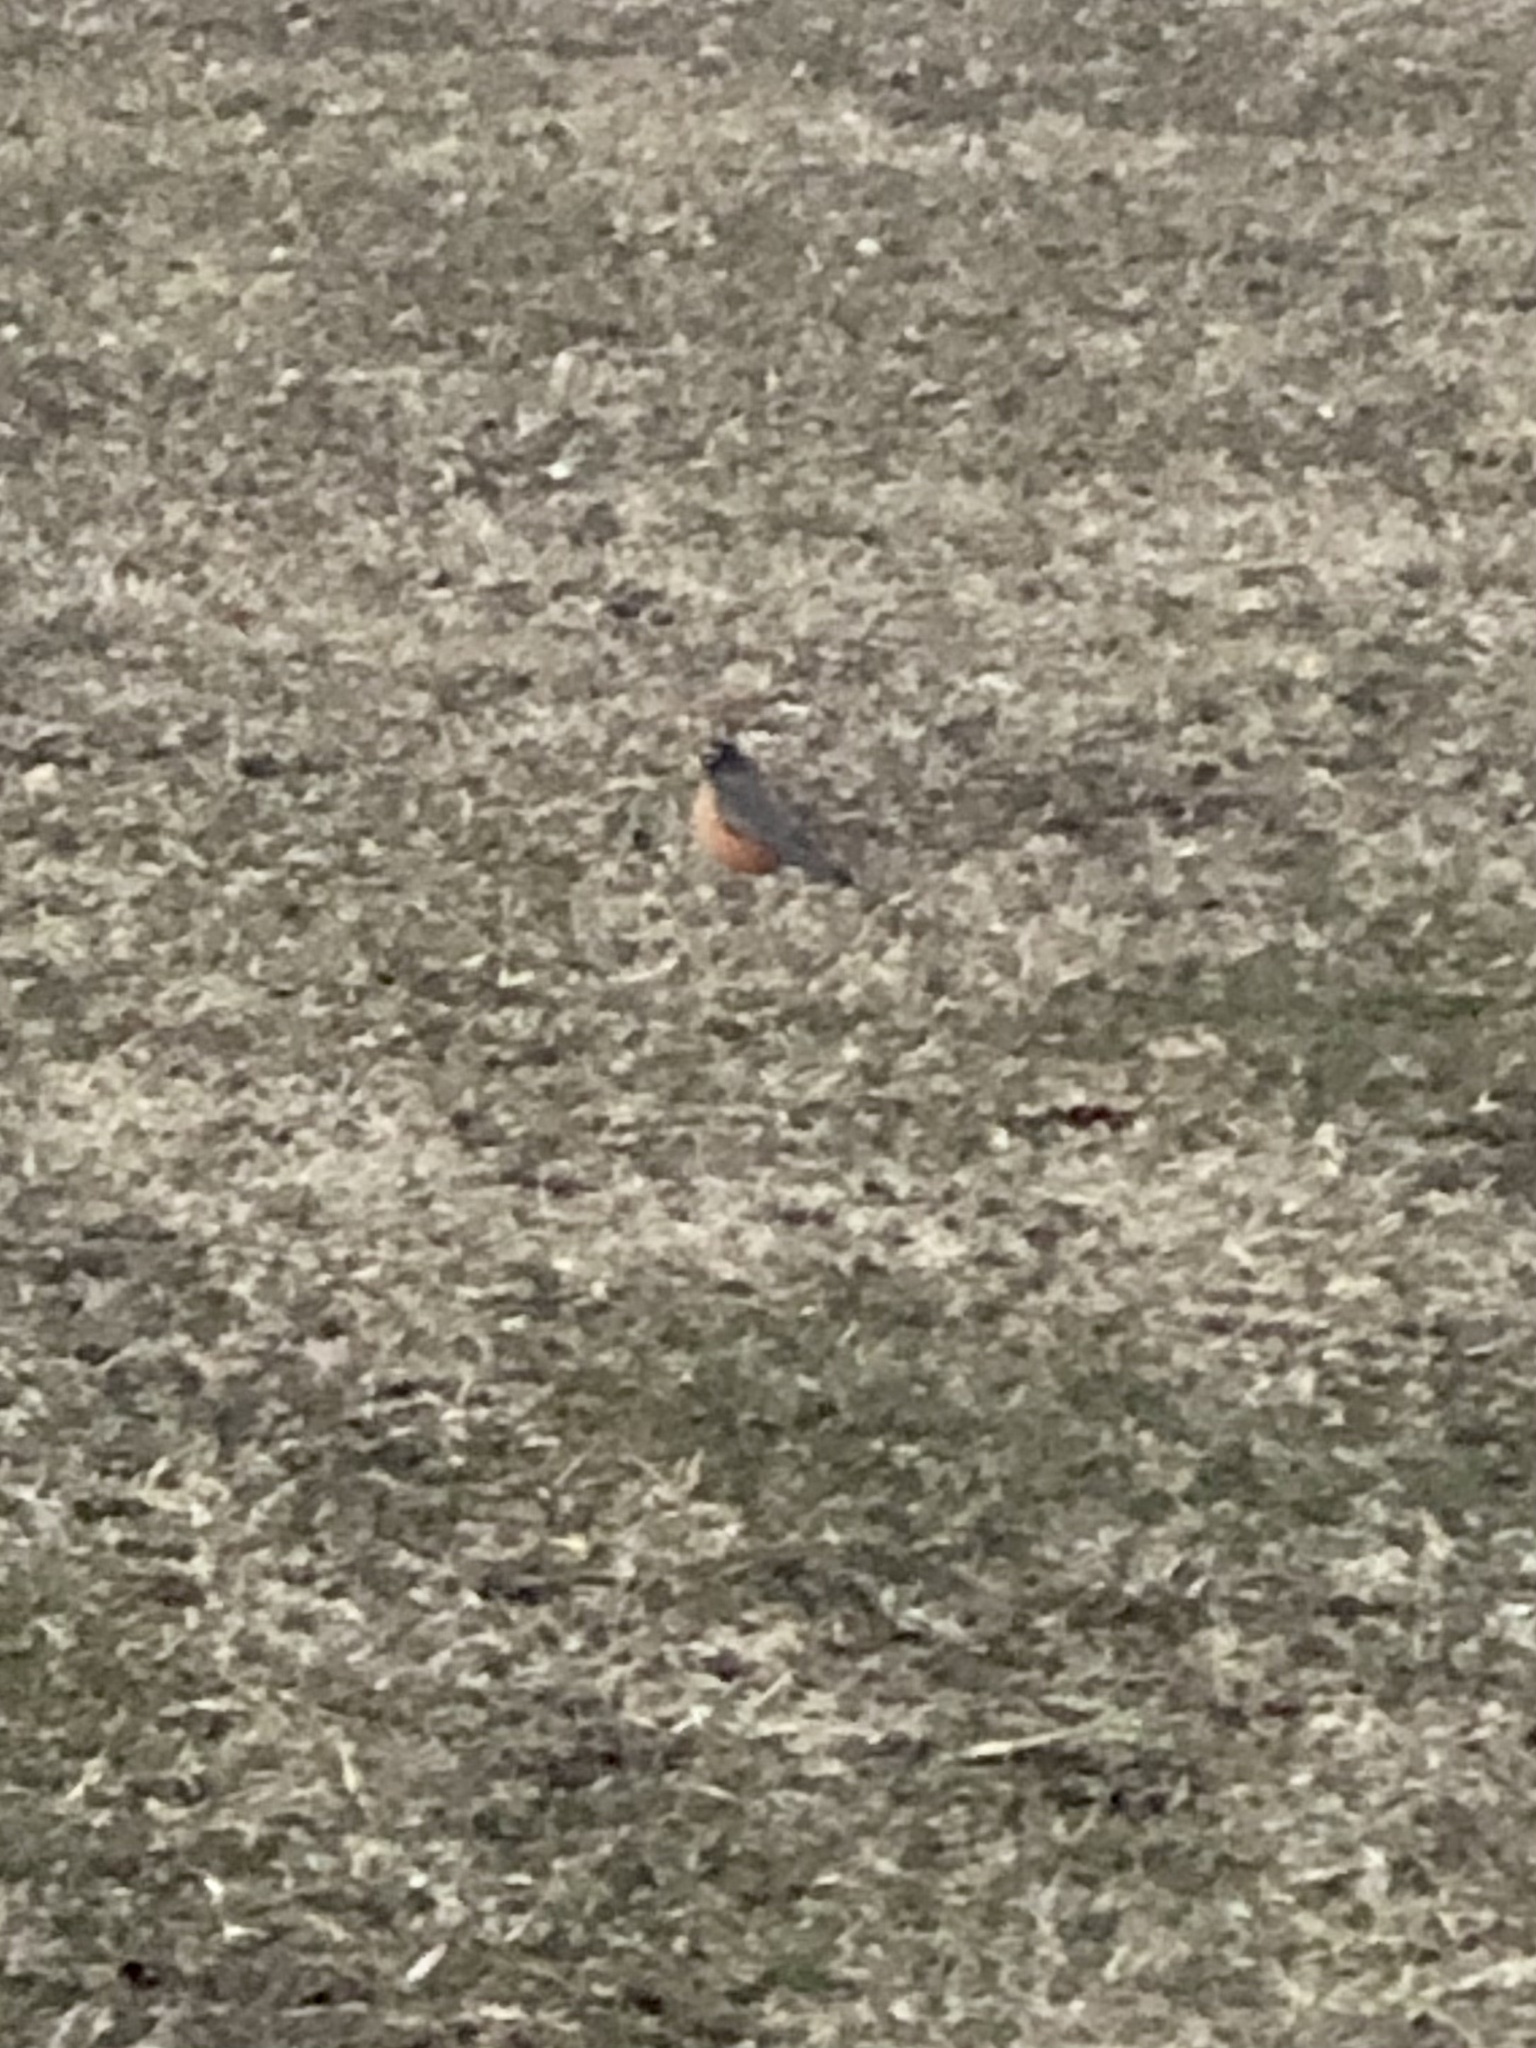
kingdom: Animalia
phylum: Chordata
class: Aves
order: Passeriformes
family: Turdidae
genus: Turdus
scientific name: Turdus migratorius
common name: American robin
